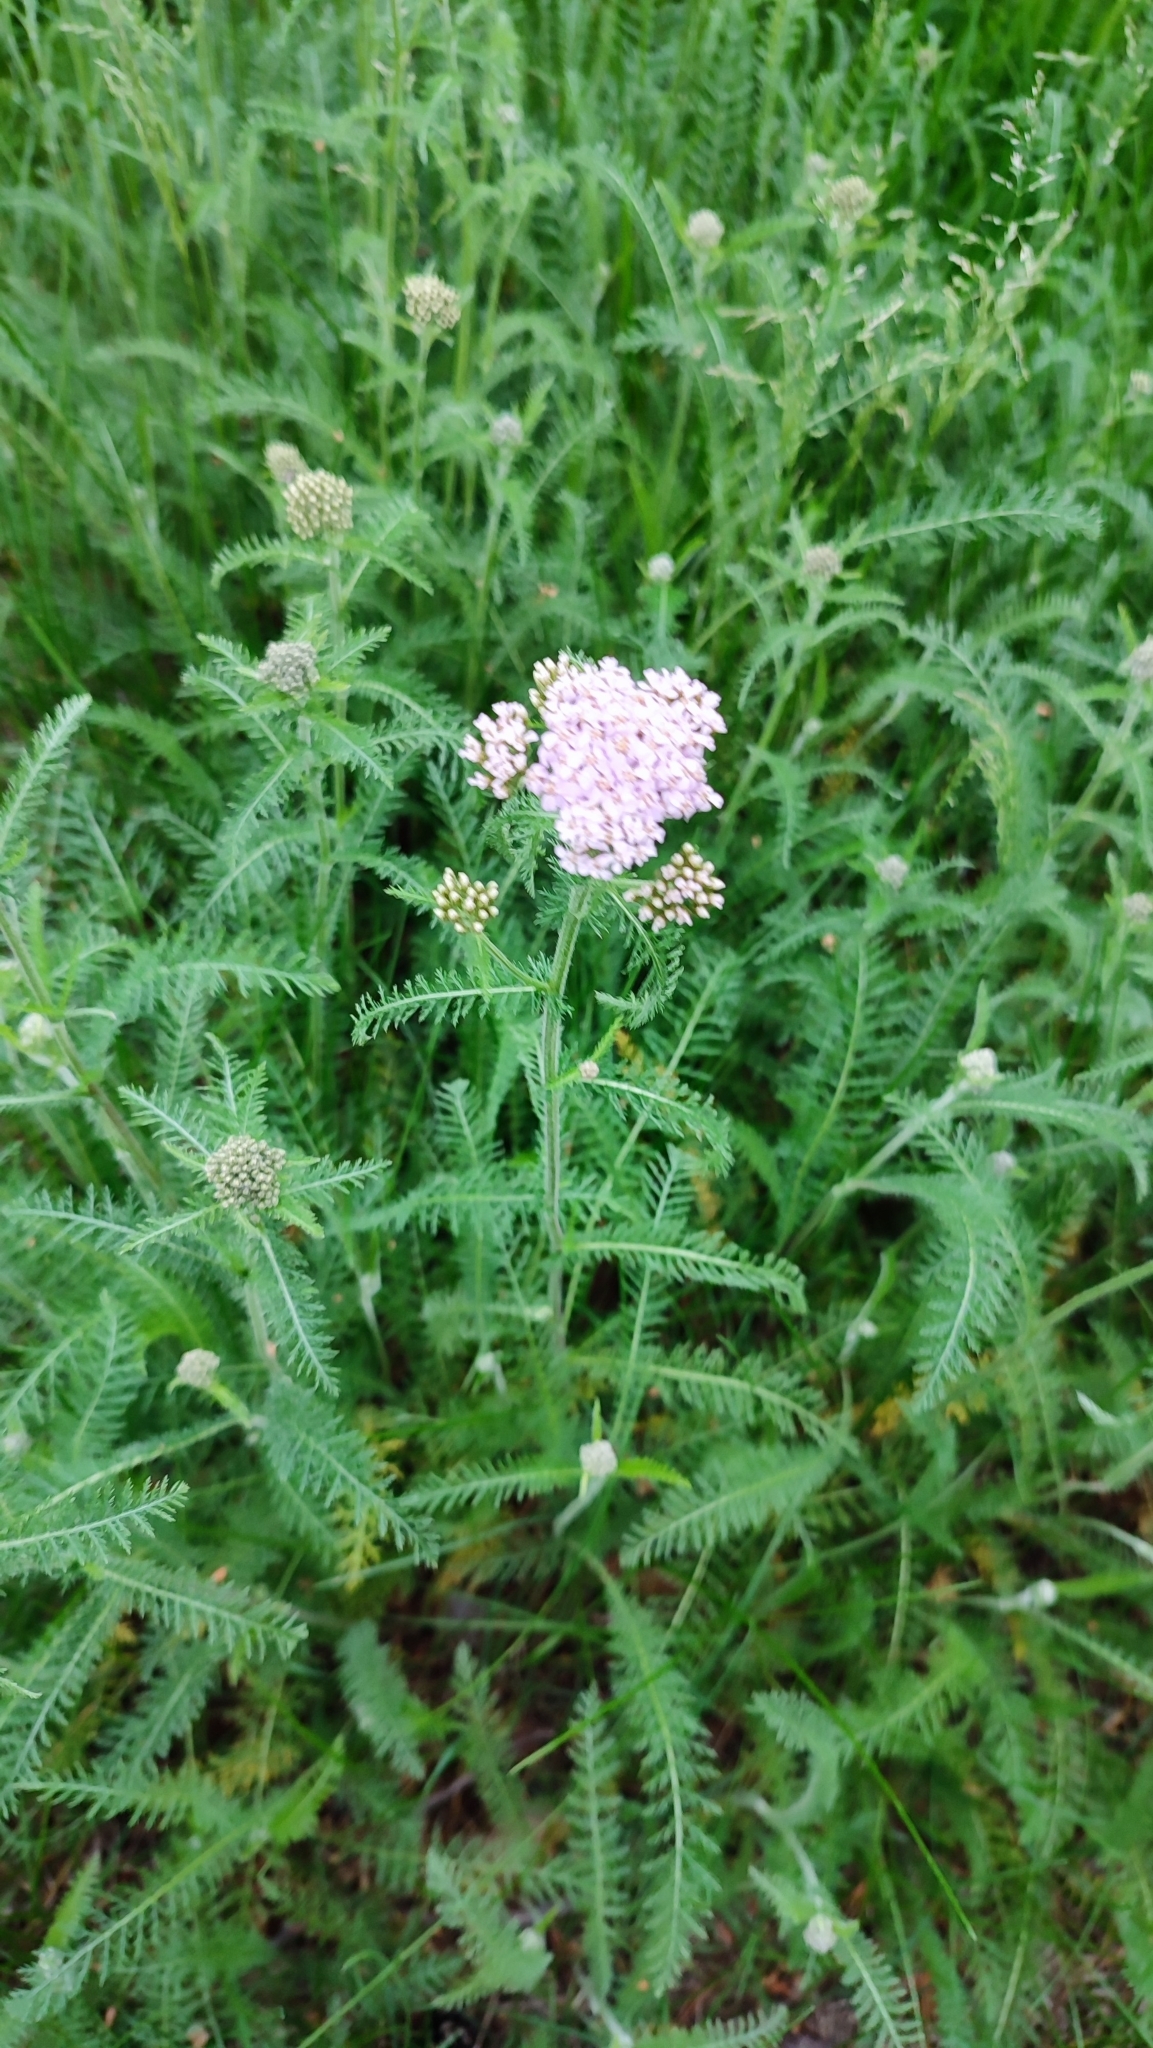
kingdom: Plantae
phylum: Tracheophyta
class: Magnoliopsida
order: Asterales
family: Asteraceae
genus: Achillea
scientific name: Achillea millefolium
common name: Yarrow
